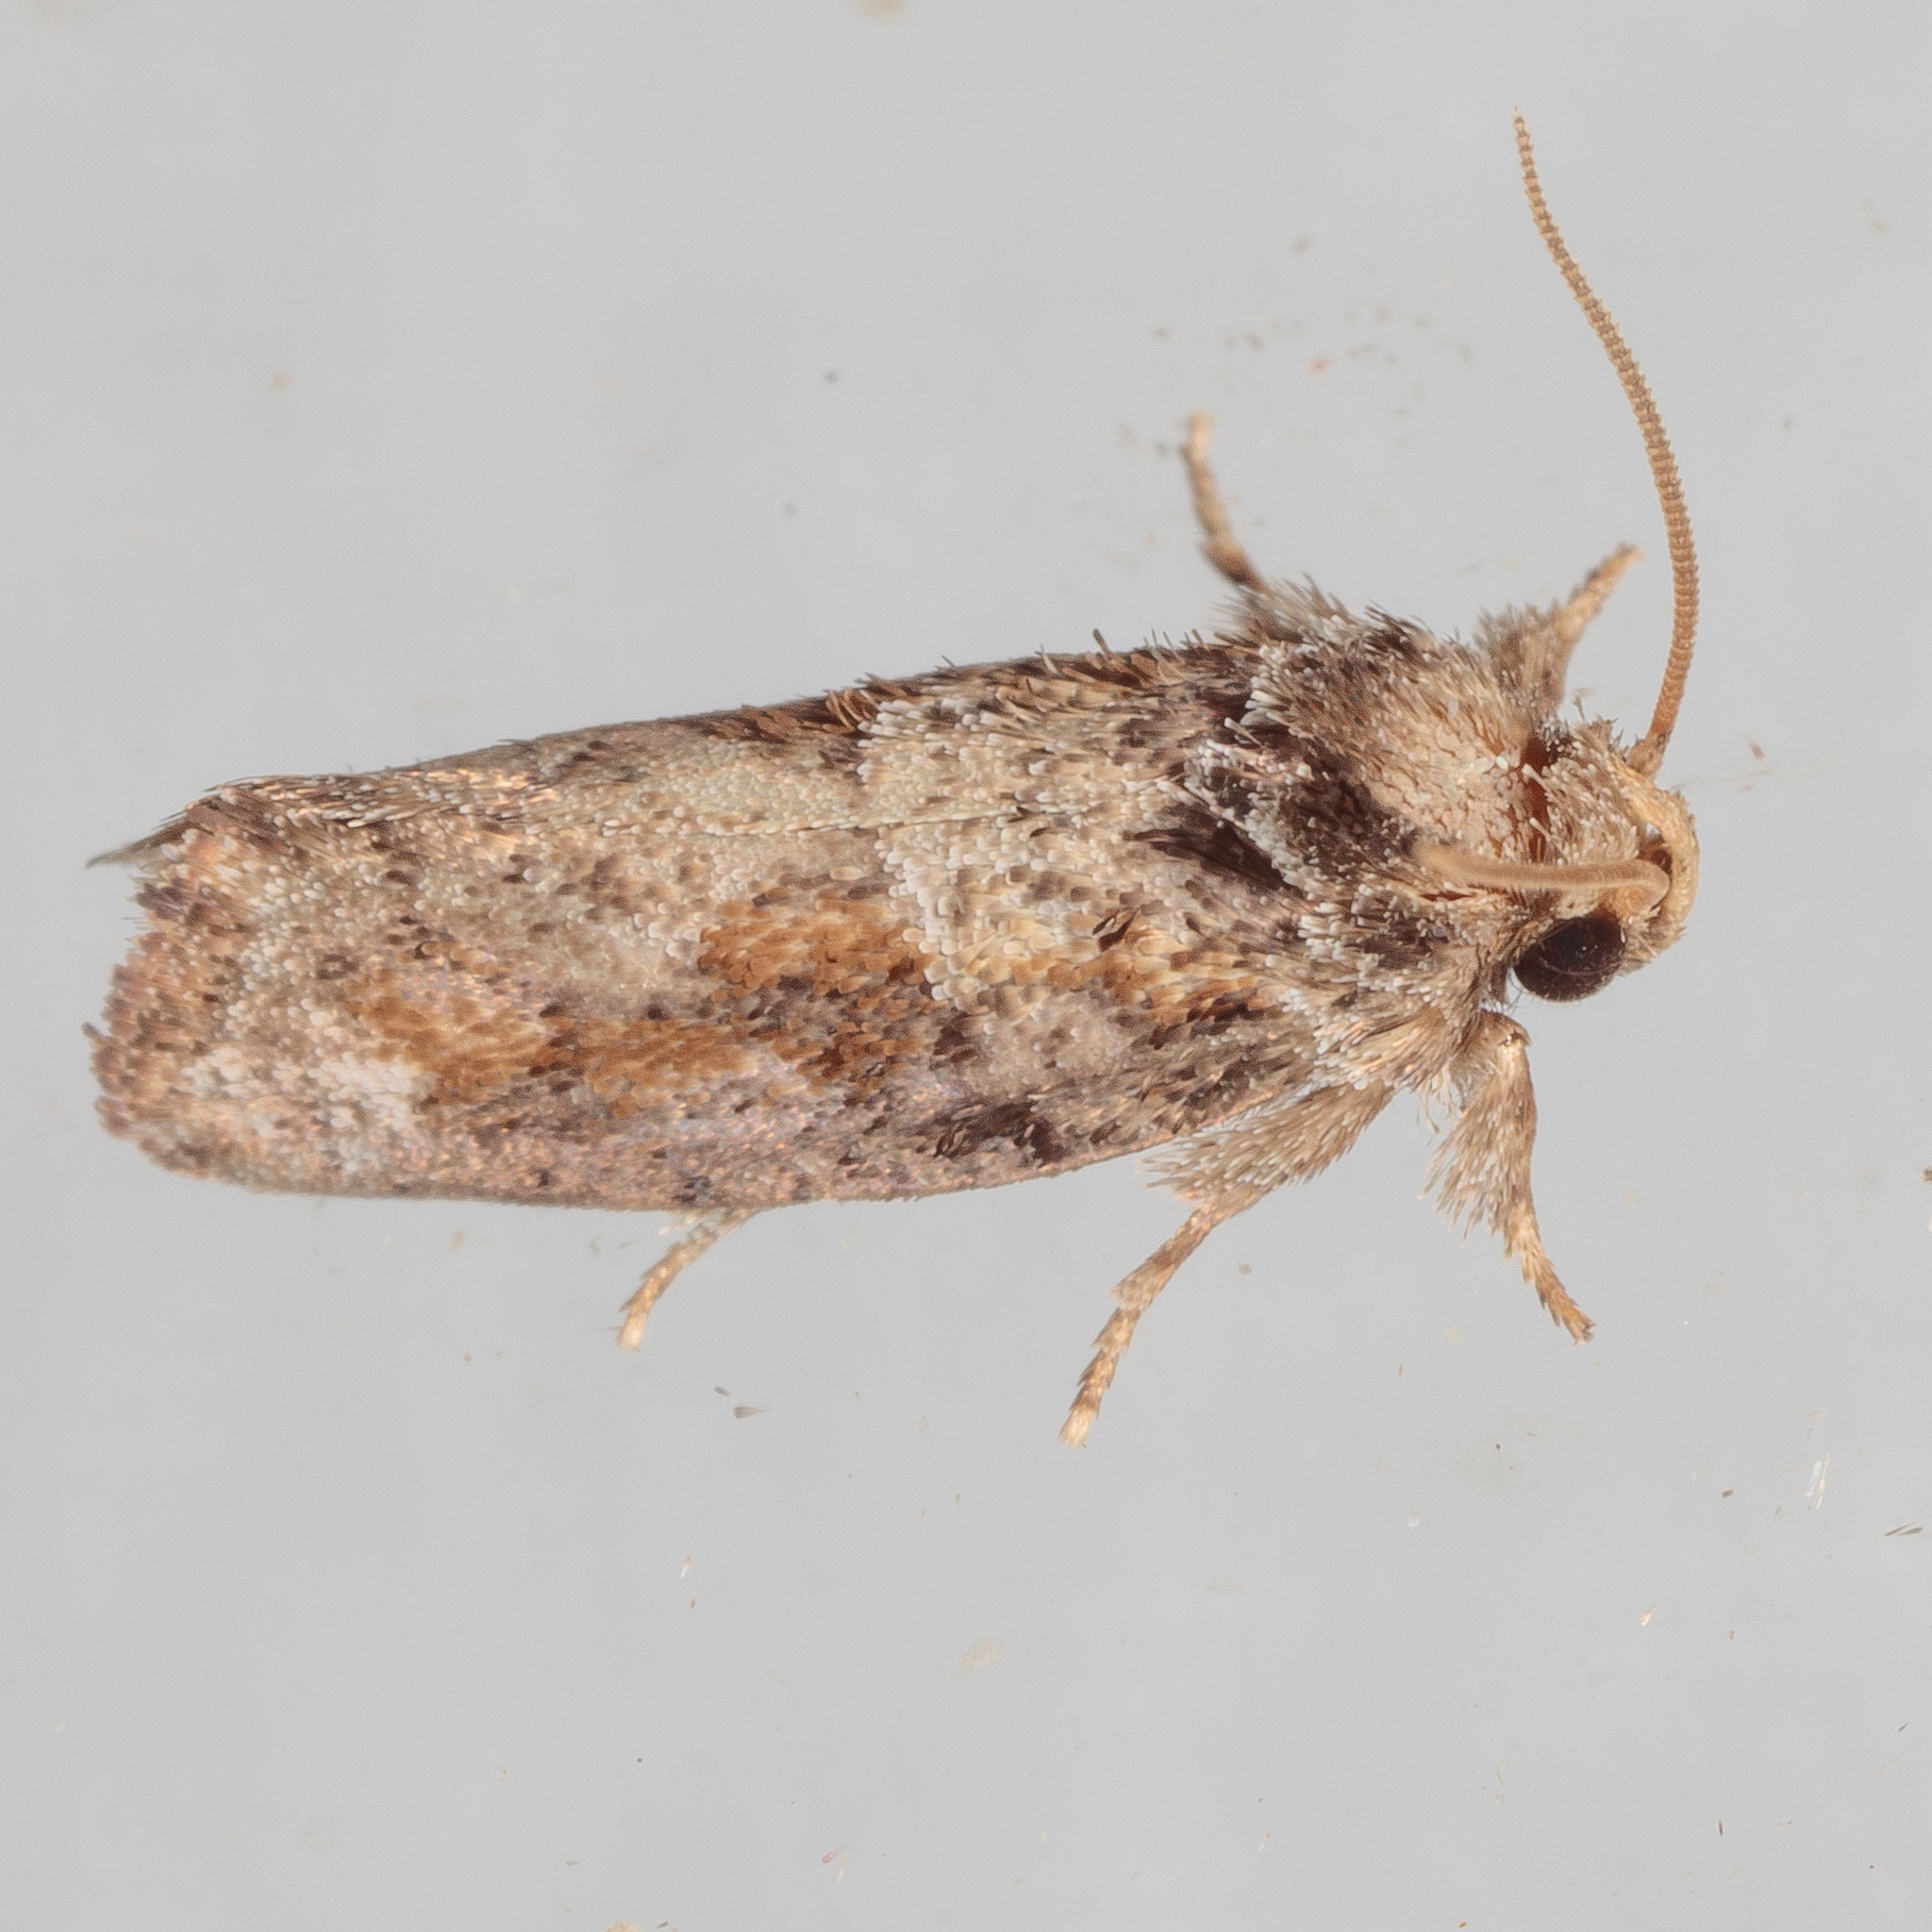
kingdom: Animalia
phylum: Arthropoda
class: Insecta
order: Lepidoptera
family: Tineidae
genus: Acrolophus
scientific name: Acrolophus piger
